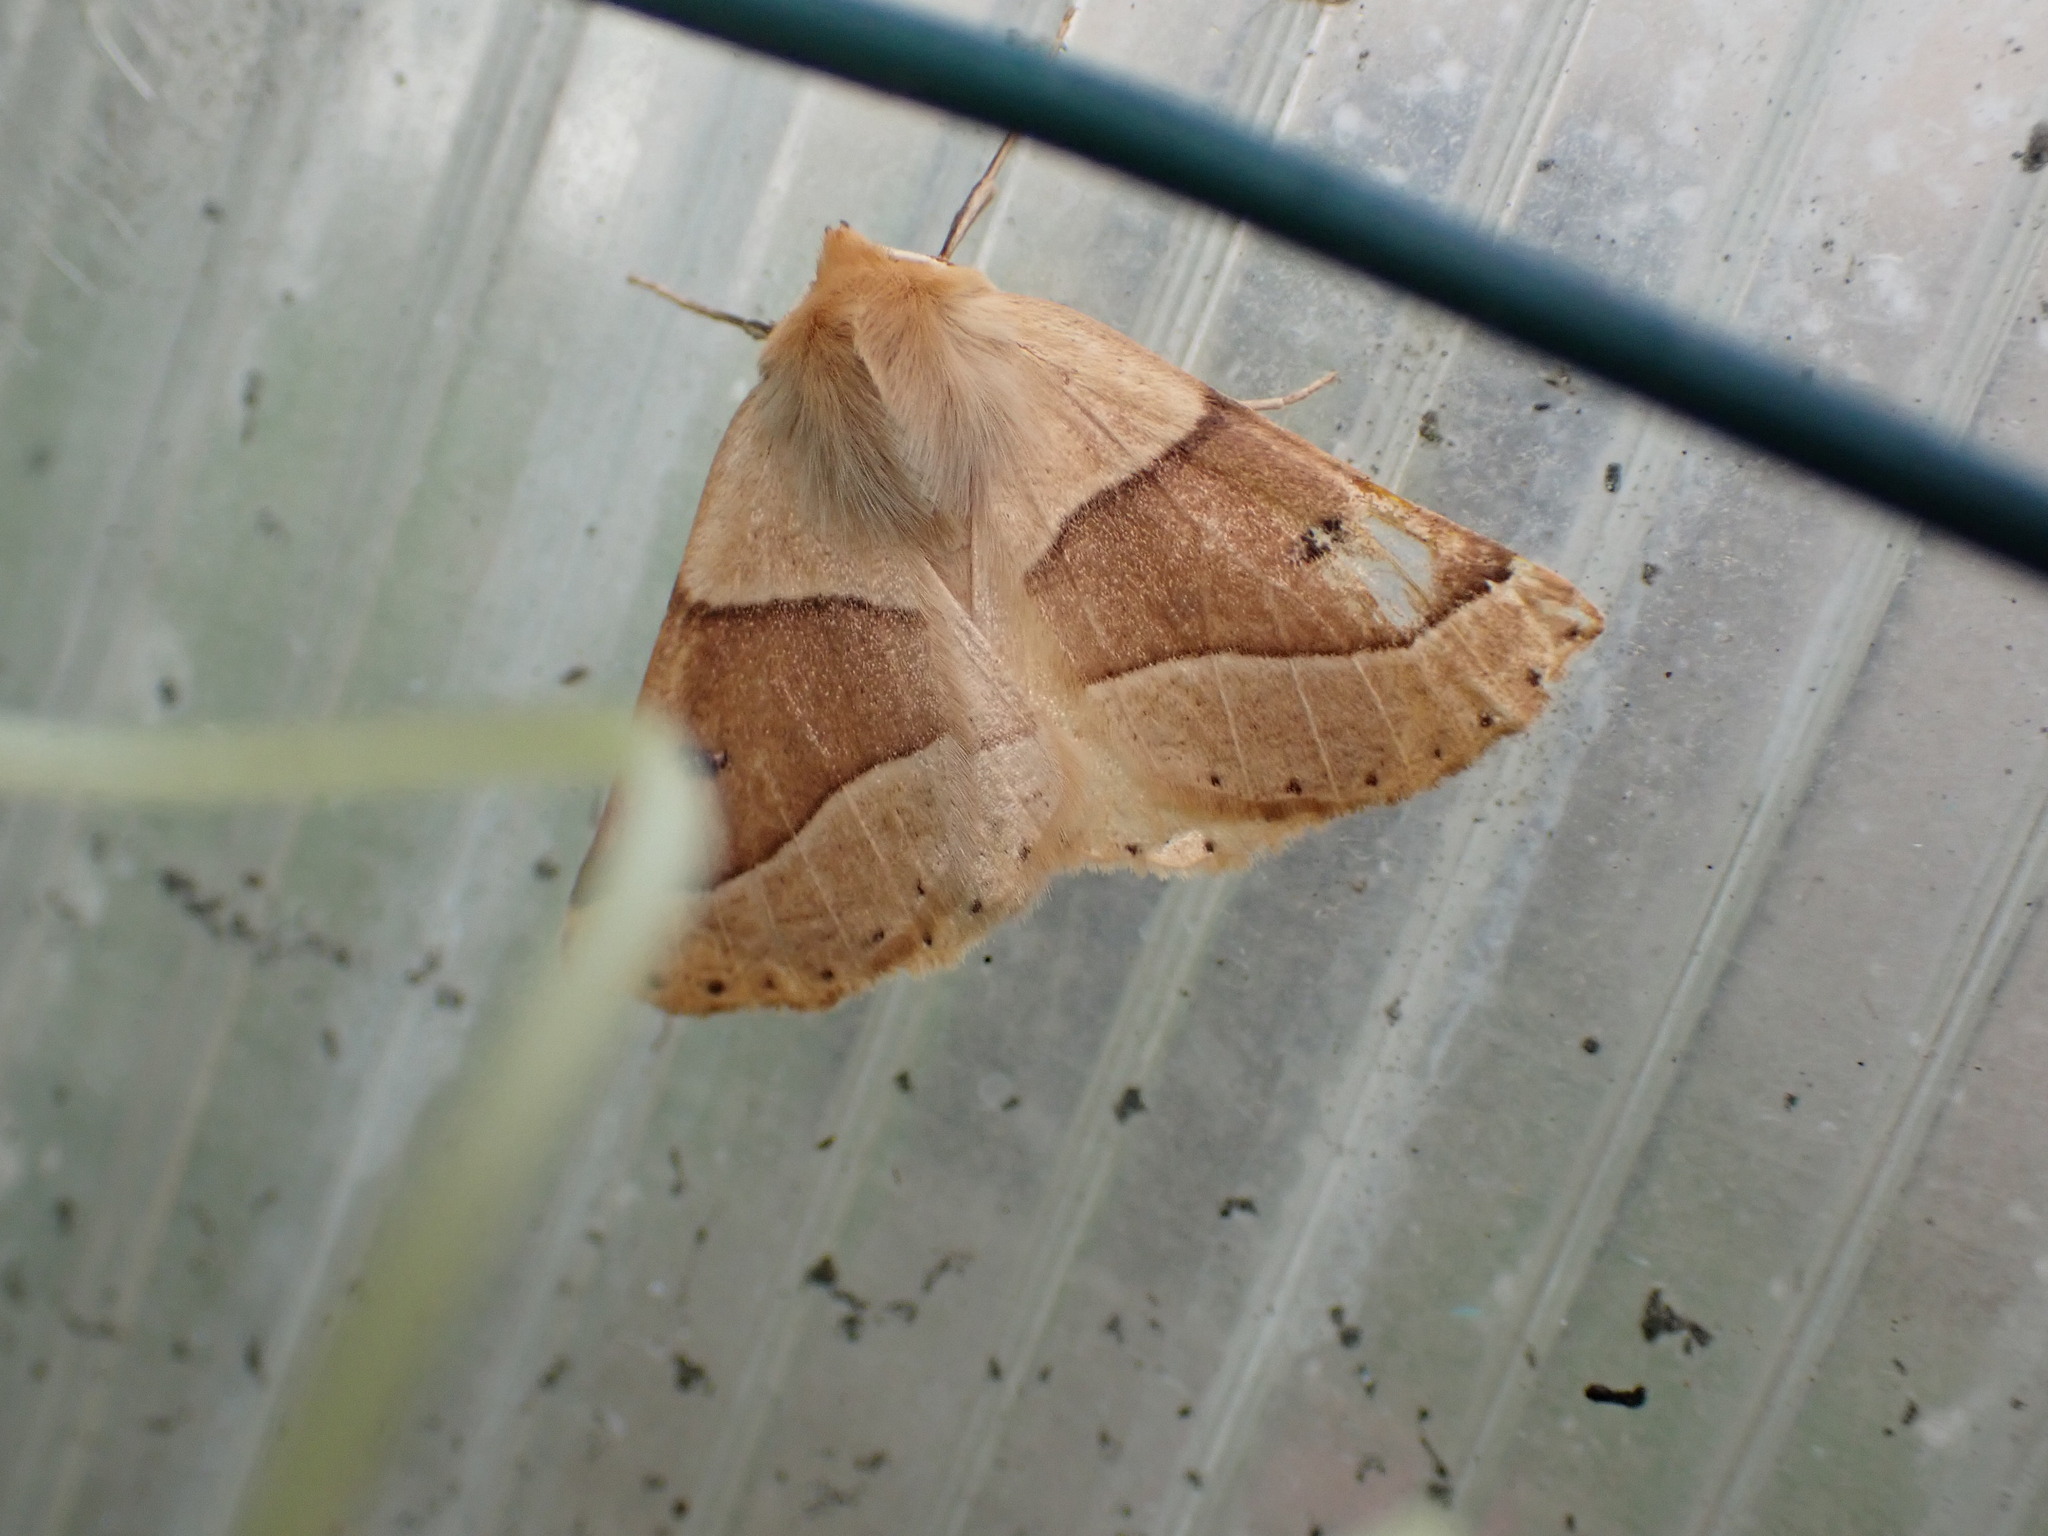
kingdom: Animalia
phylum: Arthropoda
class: Insecta
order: Lepidoptera
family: Geometridae
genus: Crocallis
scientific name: Crocallis elinguaria
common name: Scalloped oak
